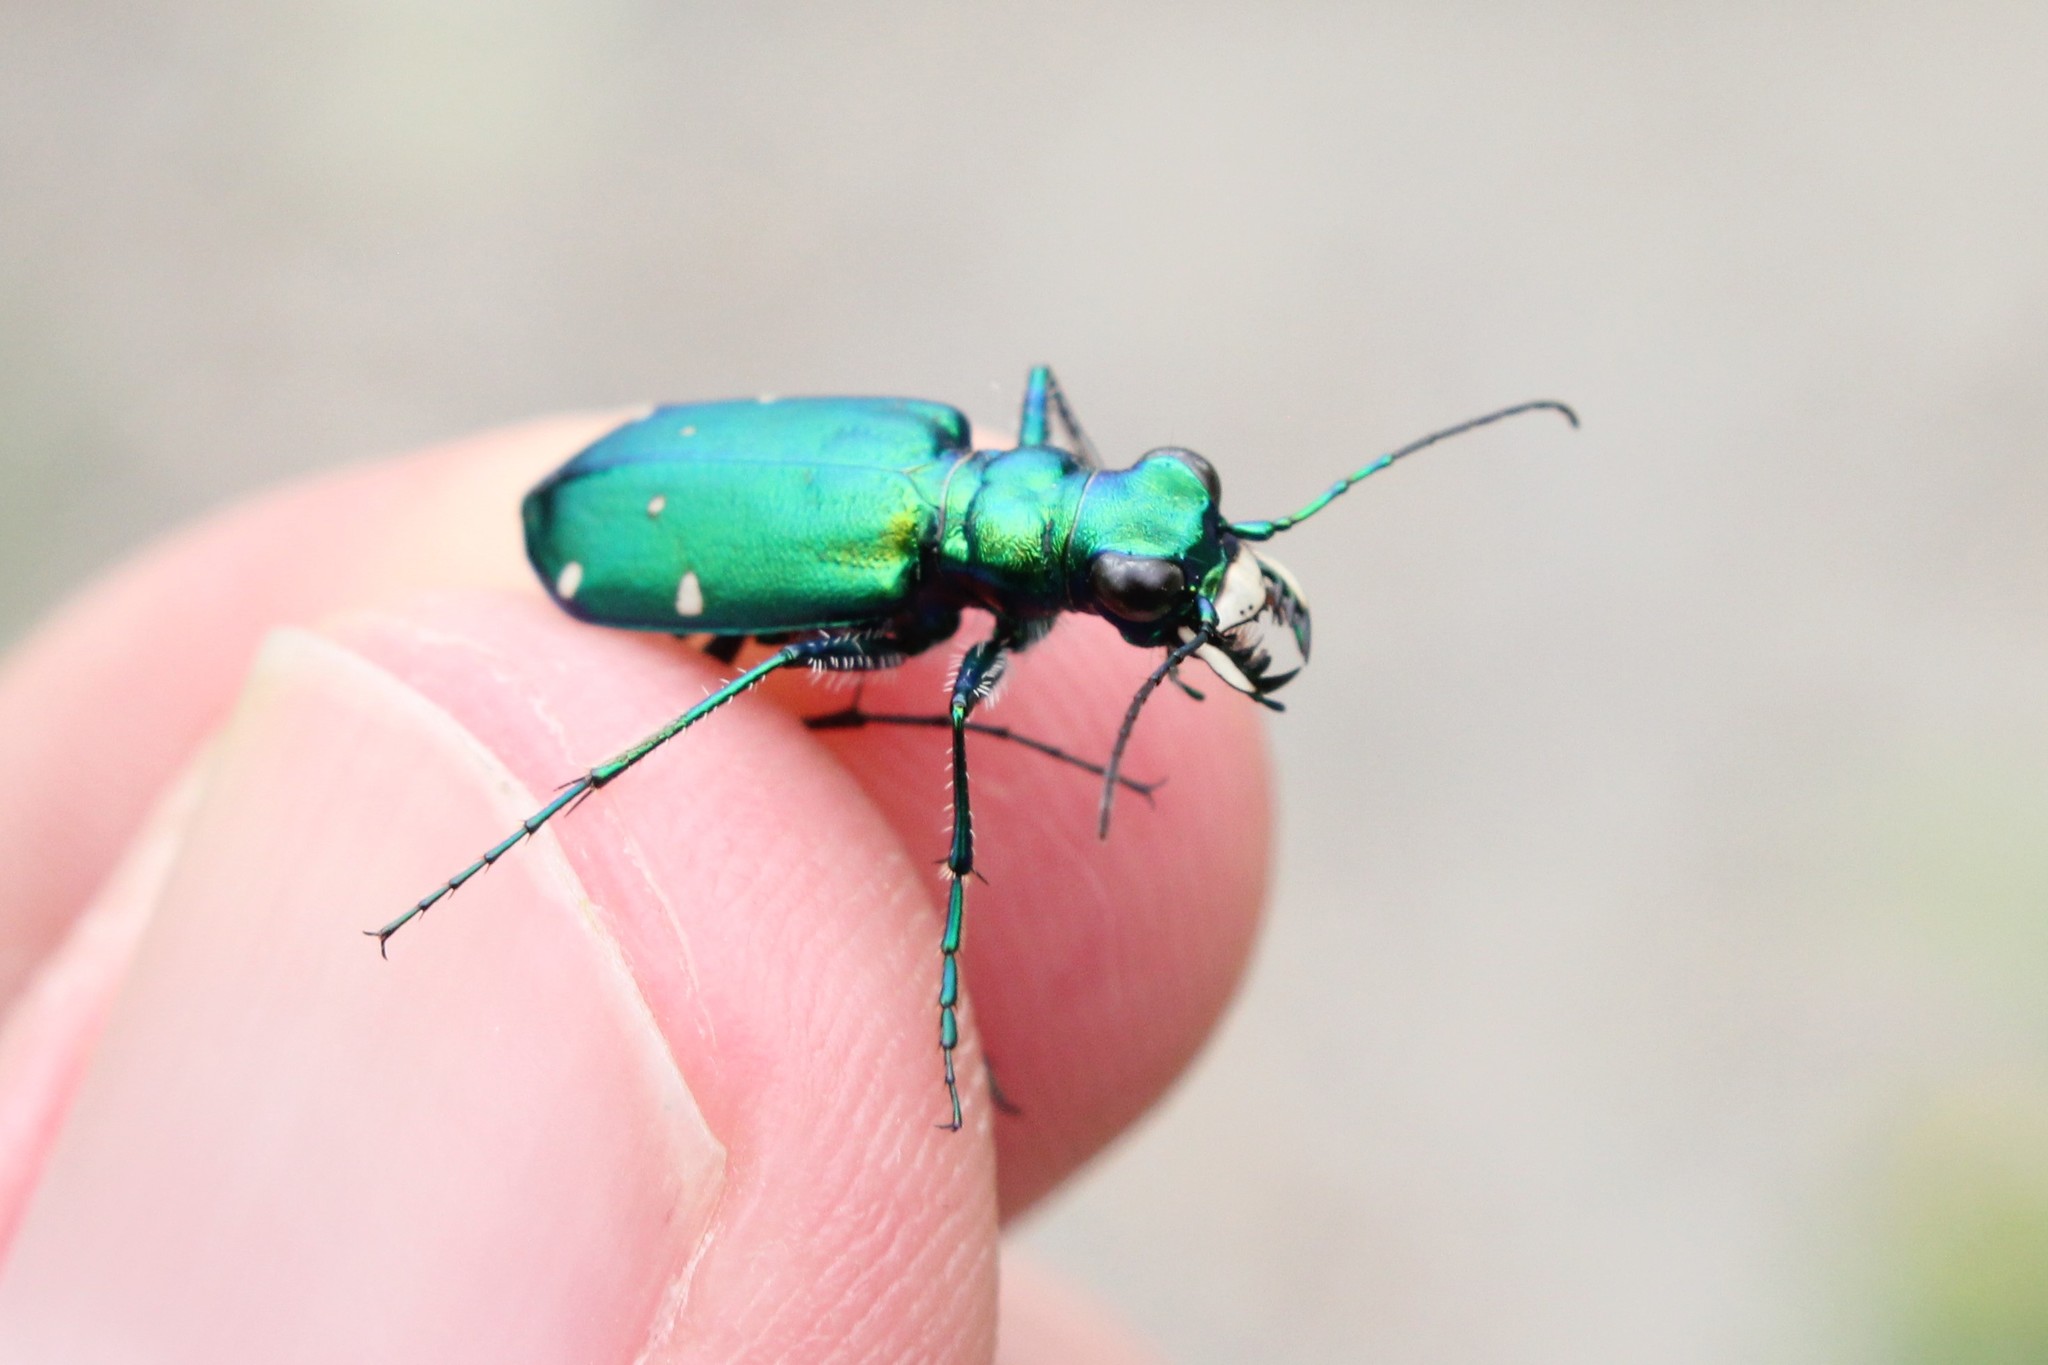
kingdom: Animalia
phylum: Arthropoda
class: Insecta
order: Coleoptera
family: Carabidae
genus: Cicindela
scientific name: Cicindela sexguttata
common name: Six-spotted tiger beetle
